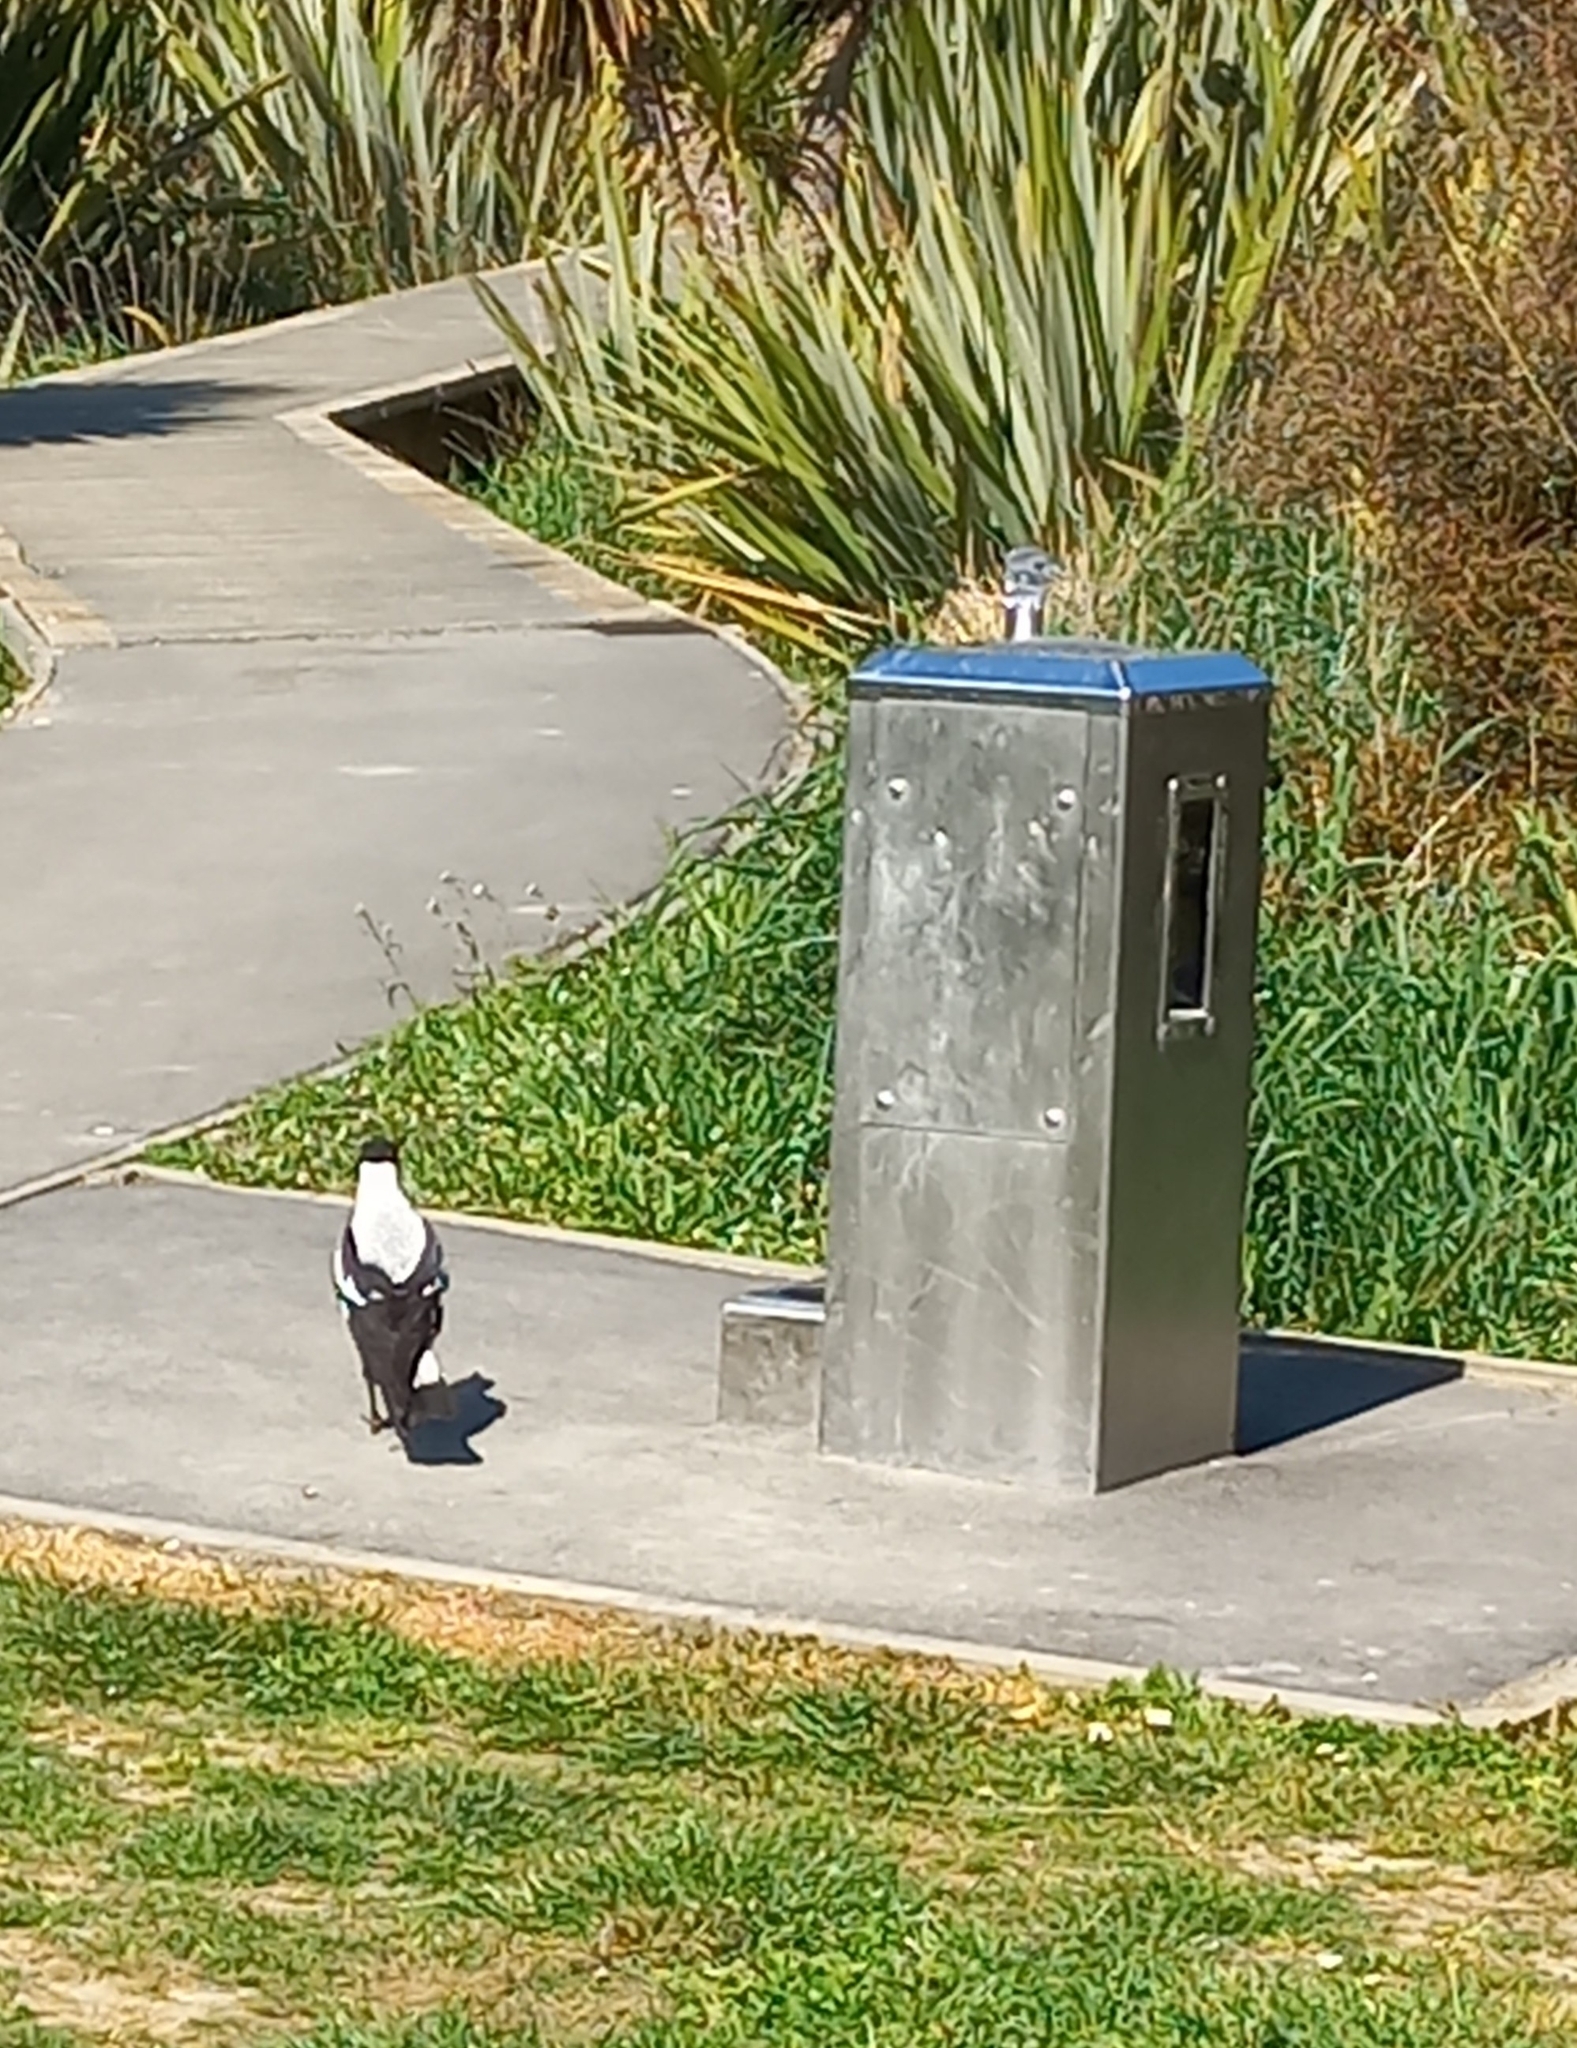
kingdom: Animalia
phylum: Chordata
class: Aves
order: Passeriformes
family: Cracticidae
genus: Gymnorhina
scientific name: Gymnorhina tibicen
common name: Australian magpie
